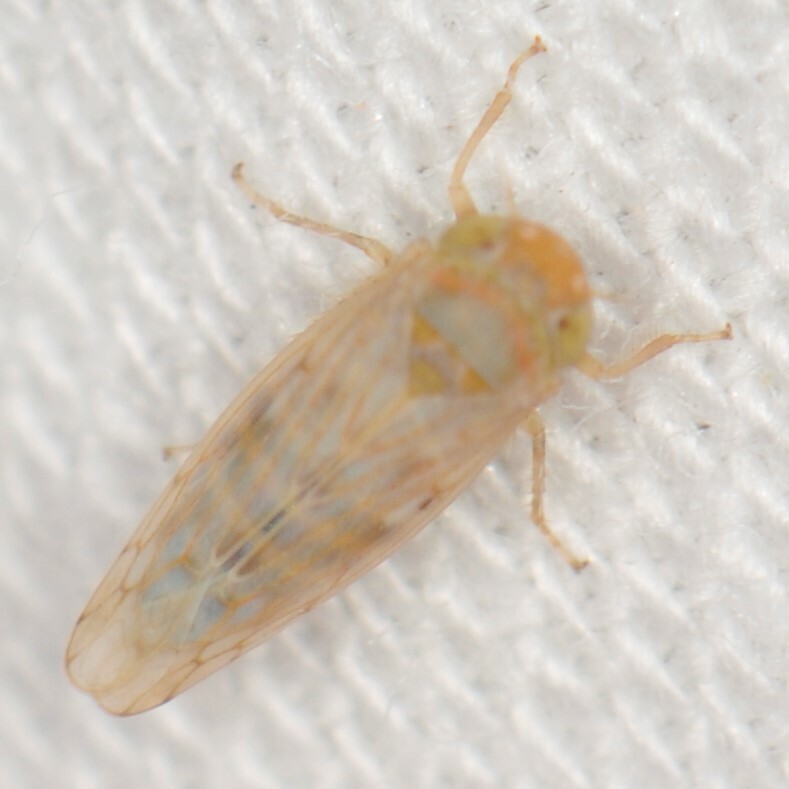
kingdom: Animalia
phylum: Arthropoda
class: Insecta
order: Hemiptera
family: Cicadellidae
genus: Neoaliturus
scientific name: Neoaliturus tenellus
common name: Leafhopper
